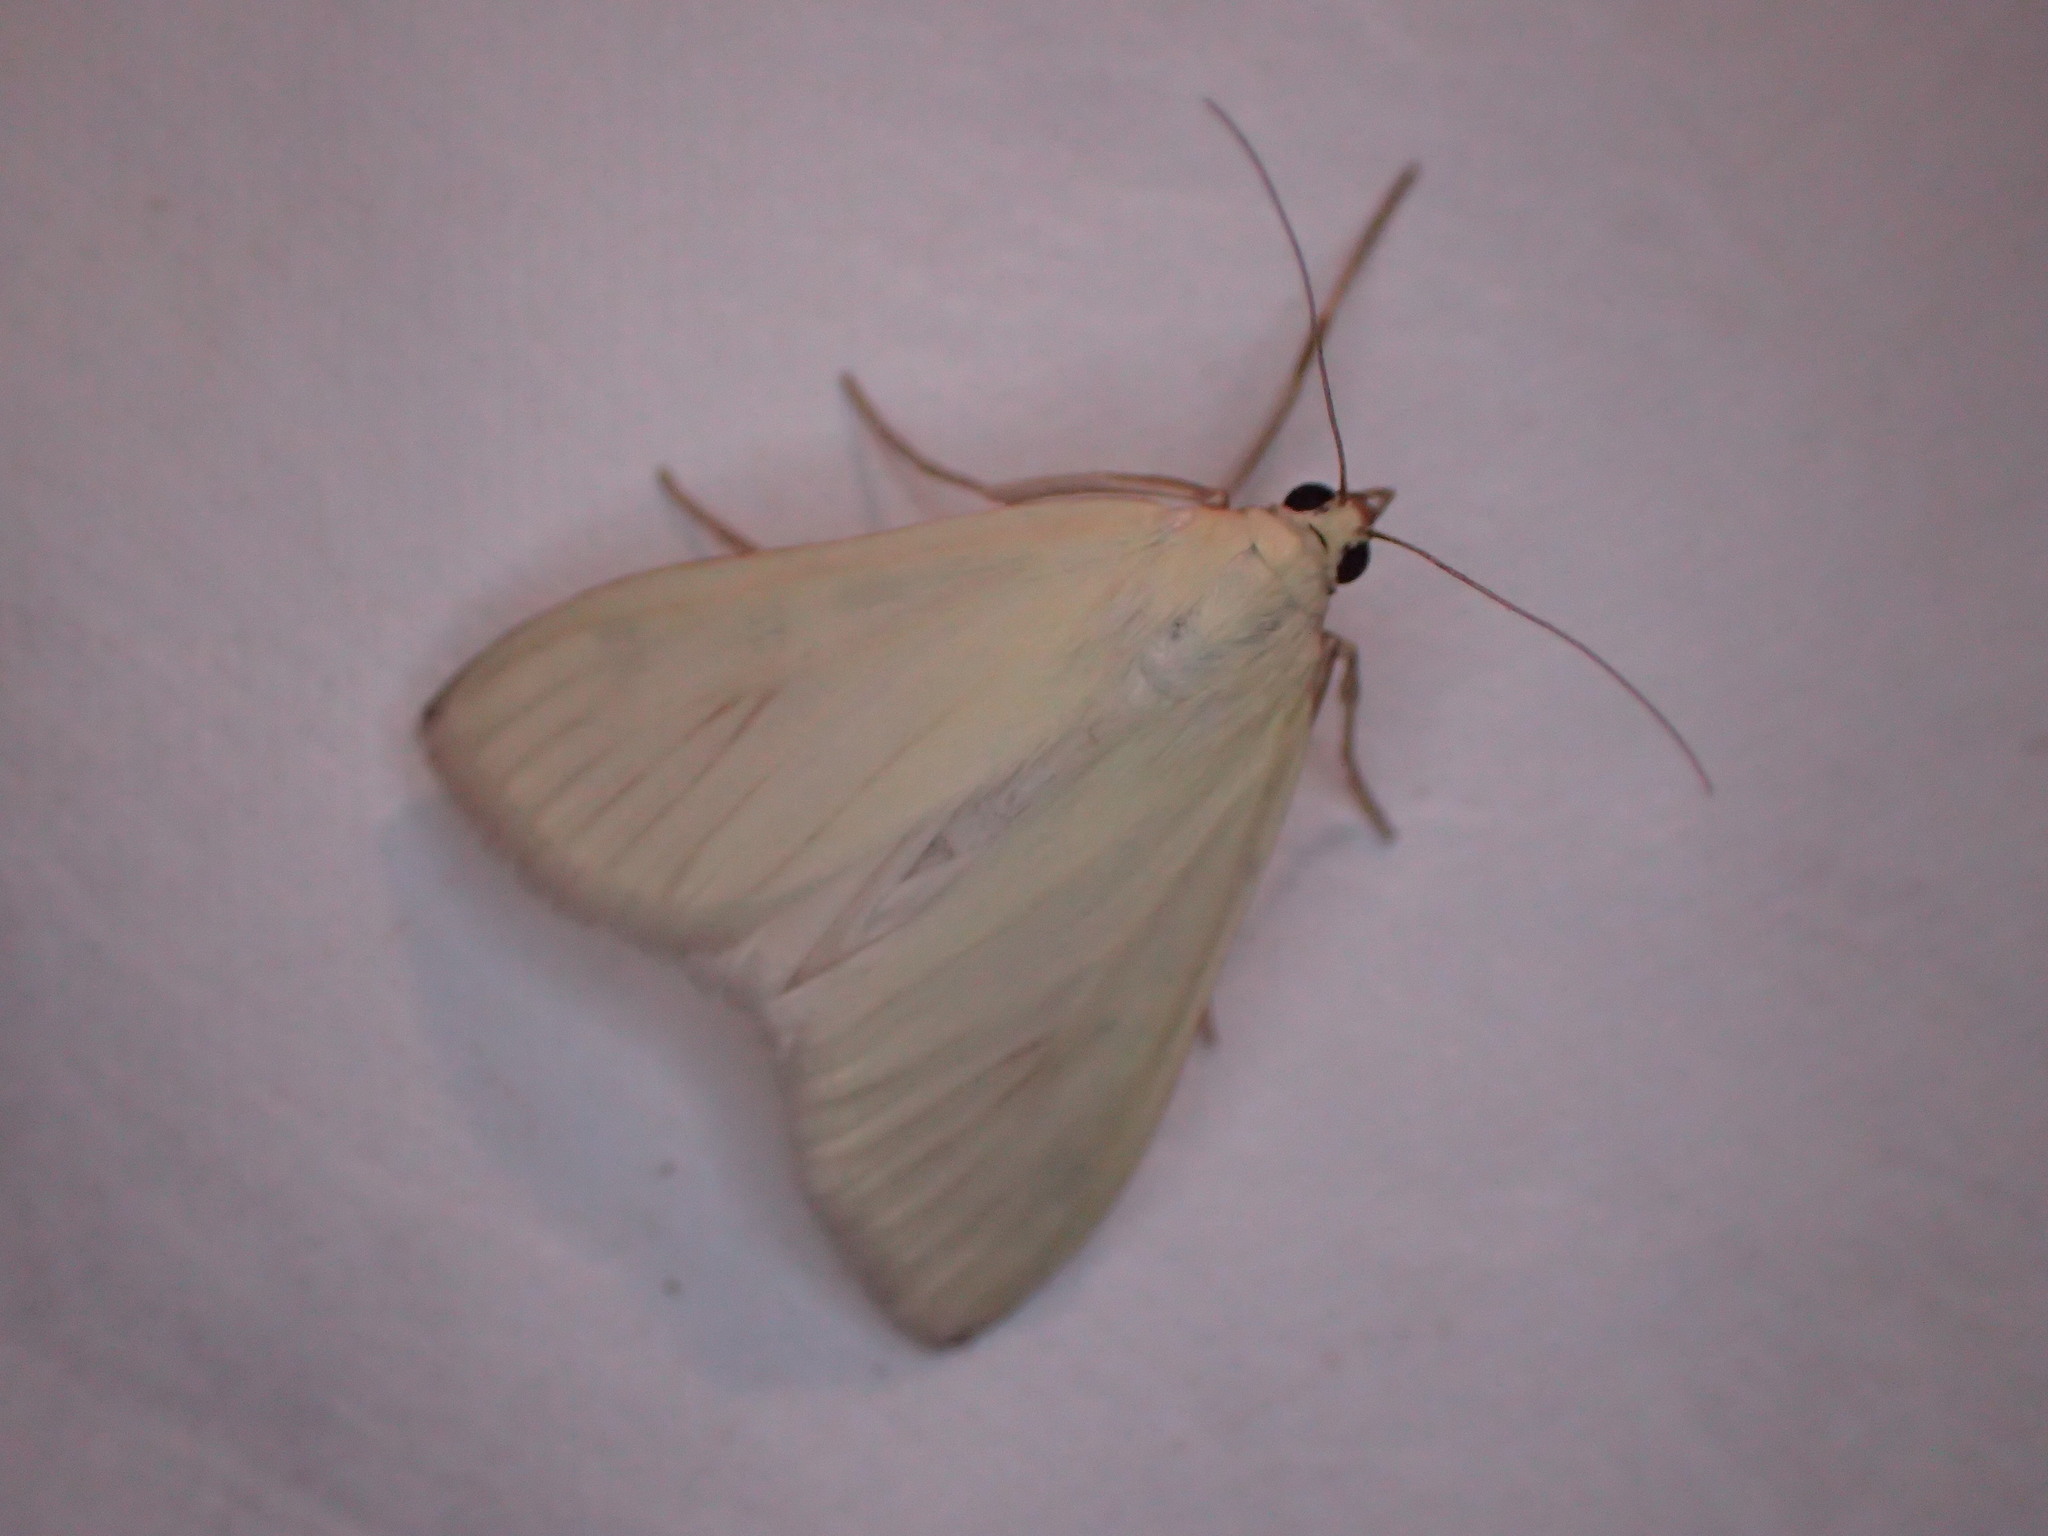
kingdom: Animalia
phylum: Arthropoda
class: Insecta
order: Lepidoptera
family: Crambidae
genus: Sitochroa
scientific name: Sitochroa palealis
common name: Greenish-yellow sitochroa moth
